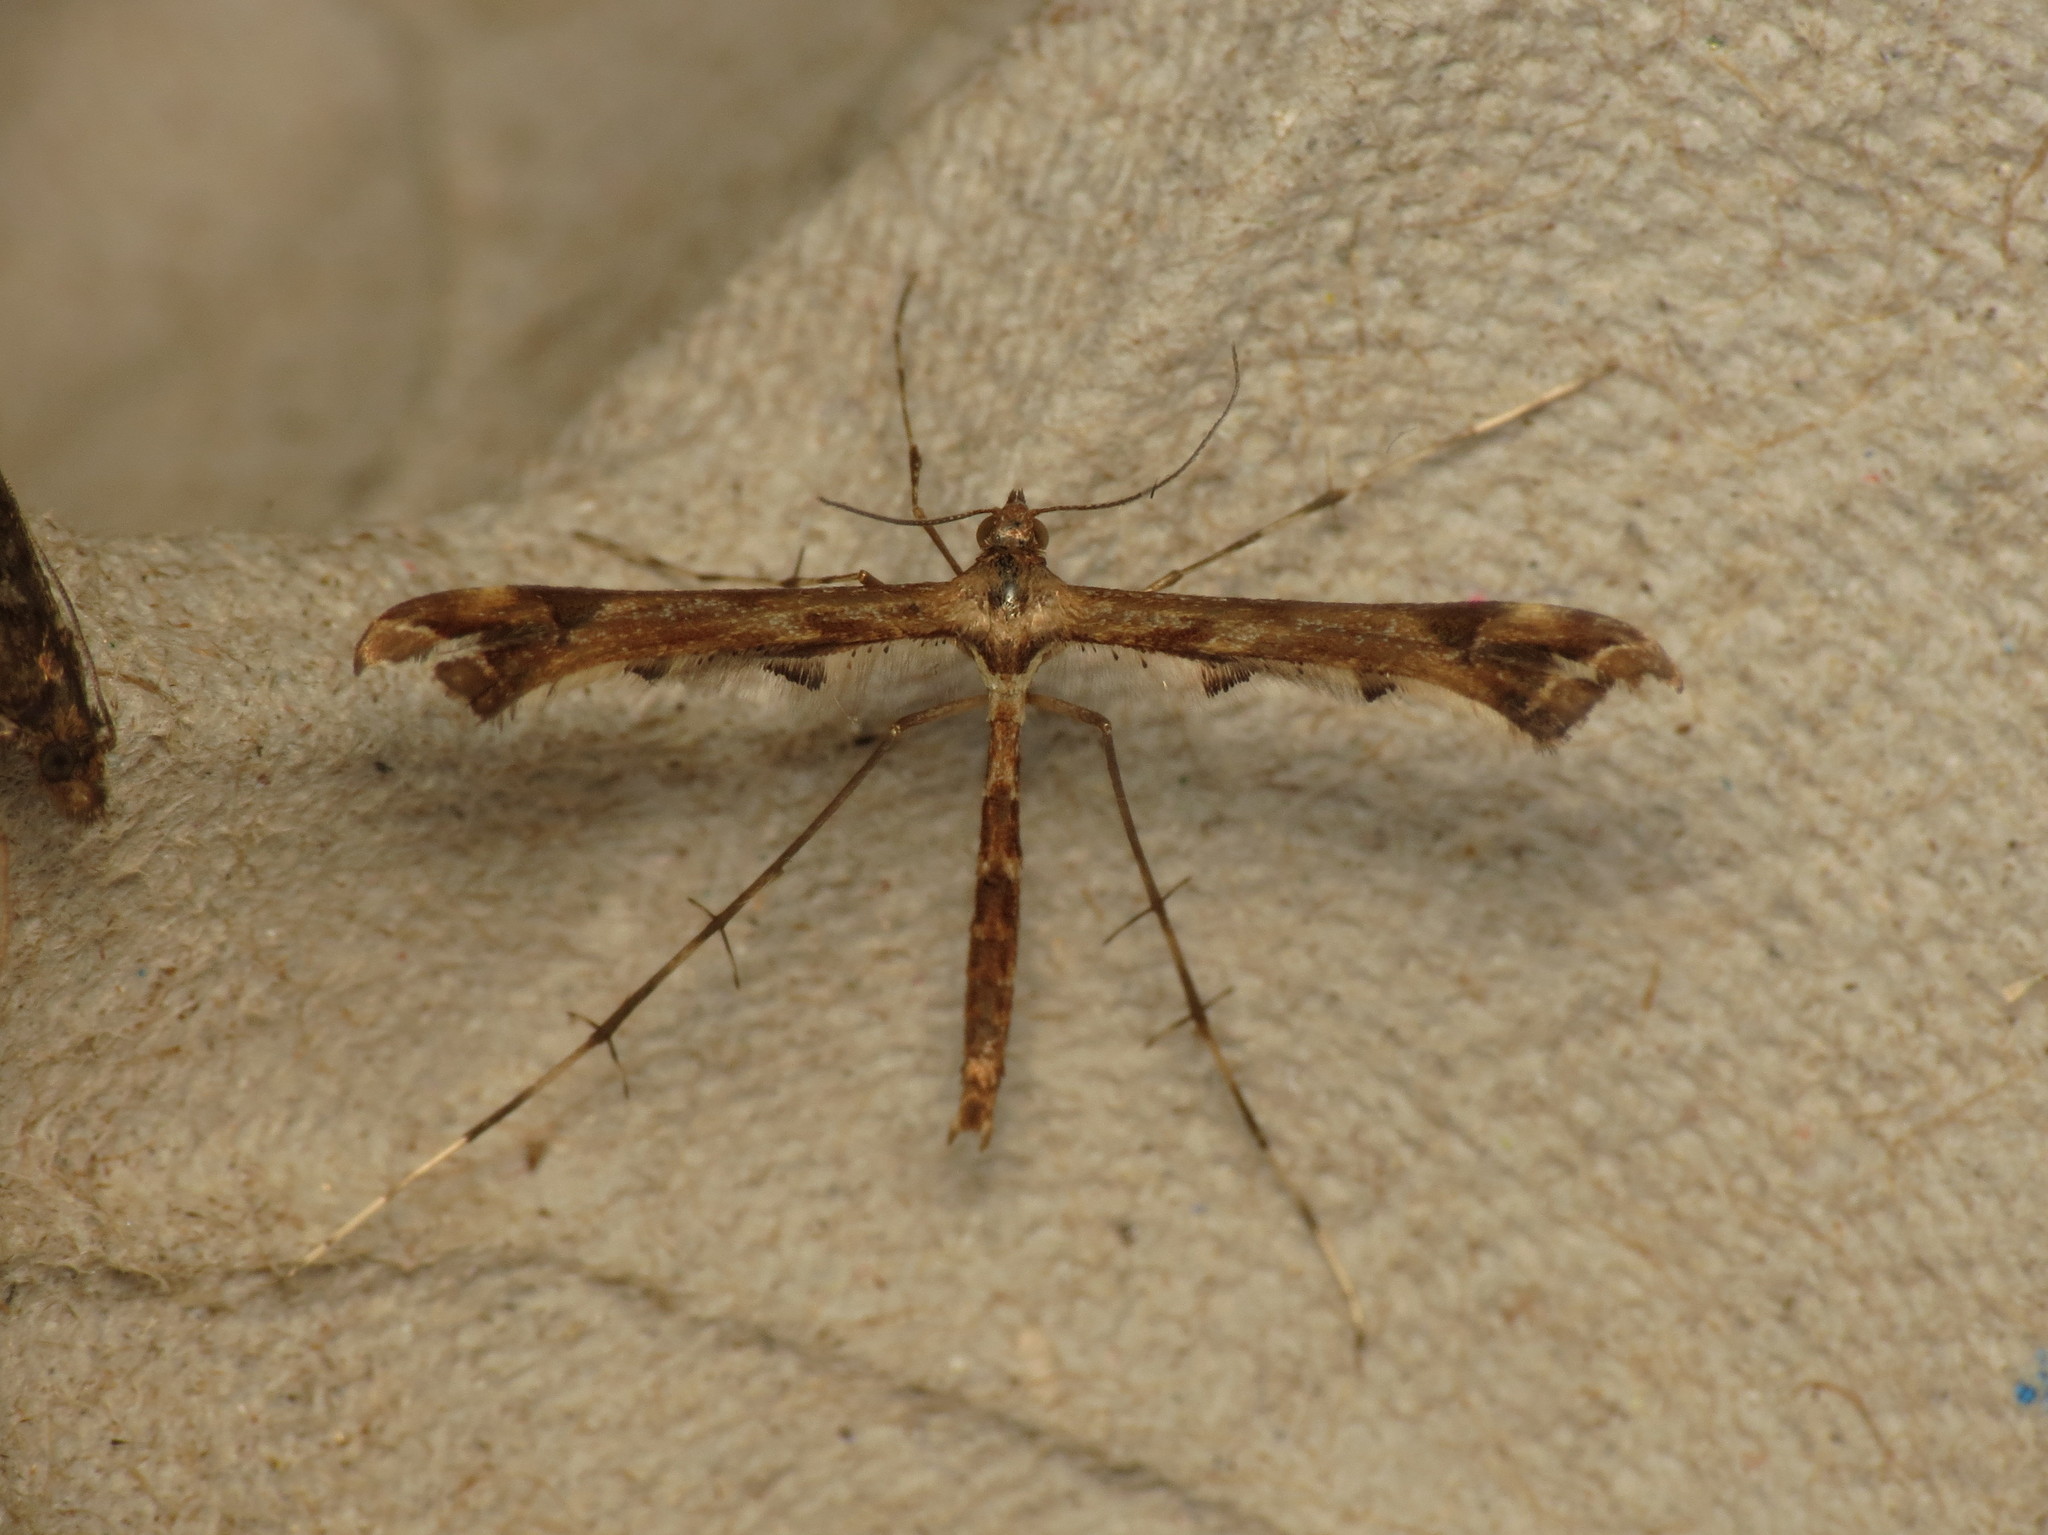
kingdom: Animalia
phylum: Arthropoda
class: Insecta
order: Lepidoptera
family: Pterophoridae
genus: Amblyptilia
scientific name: Amblyptilia acanthadactyla
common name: Beautiful plume
